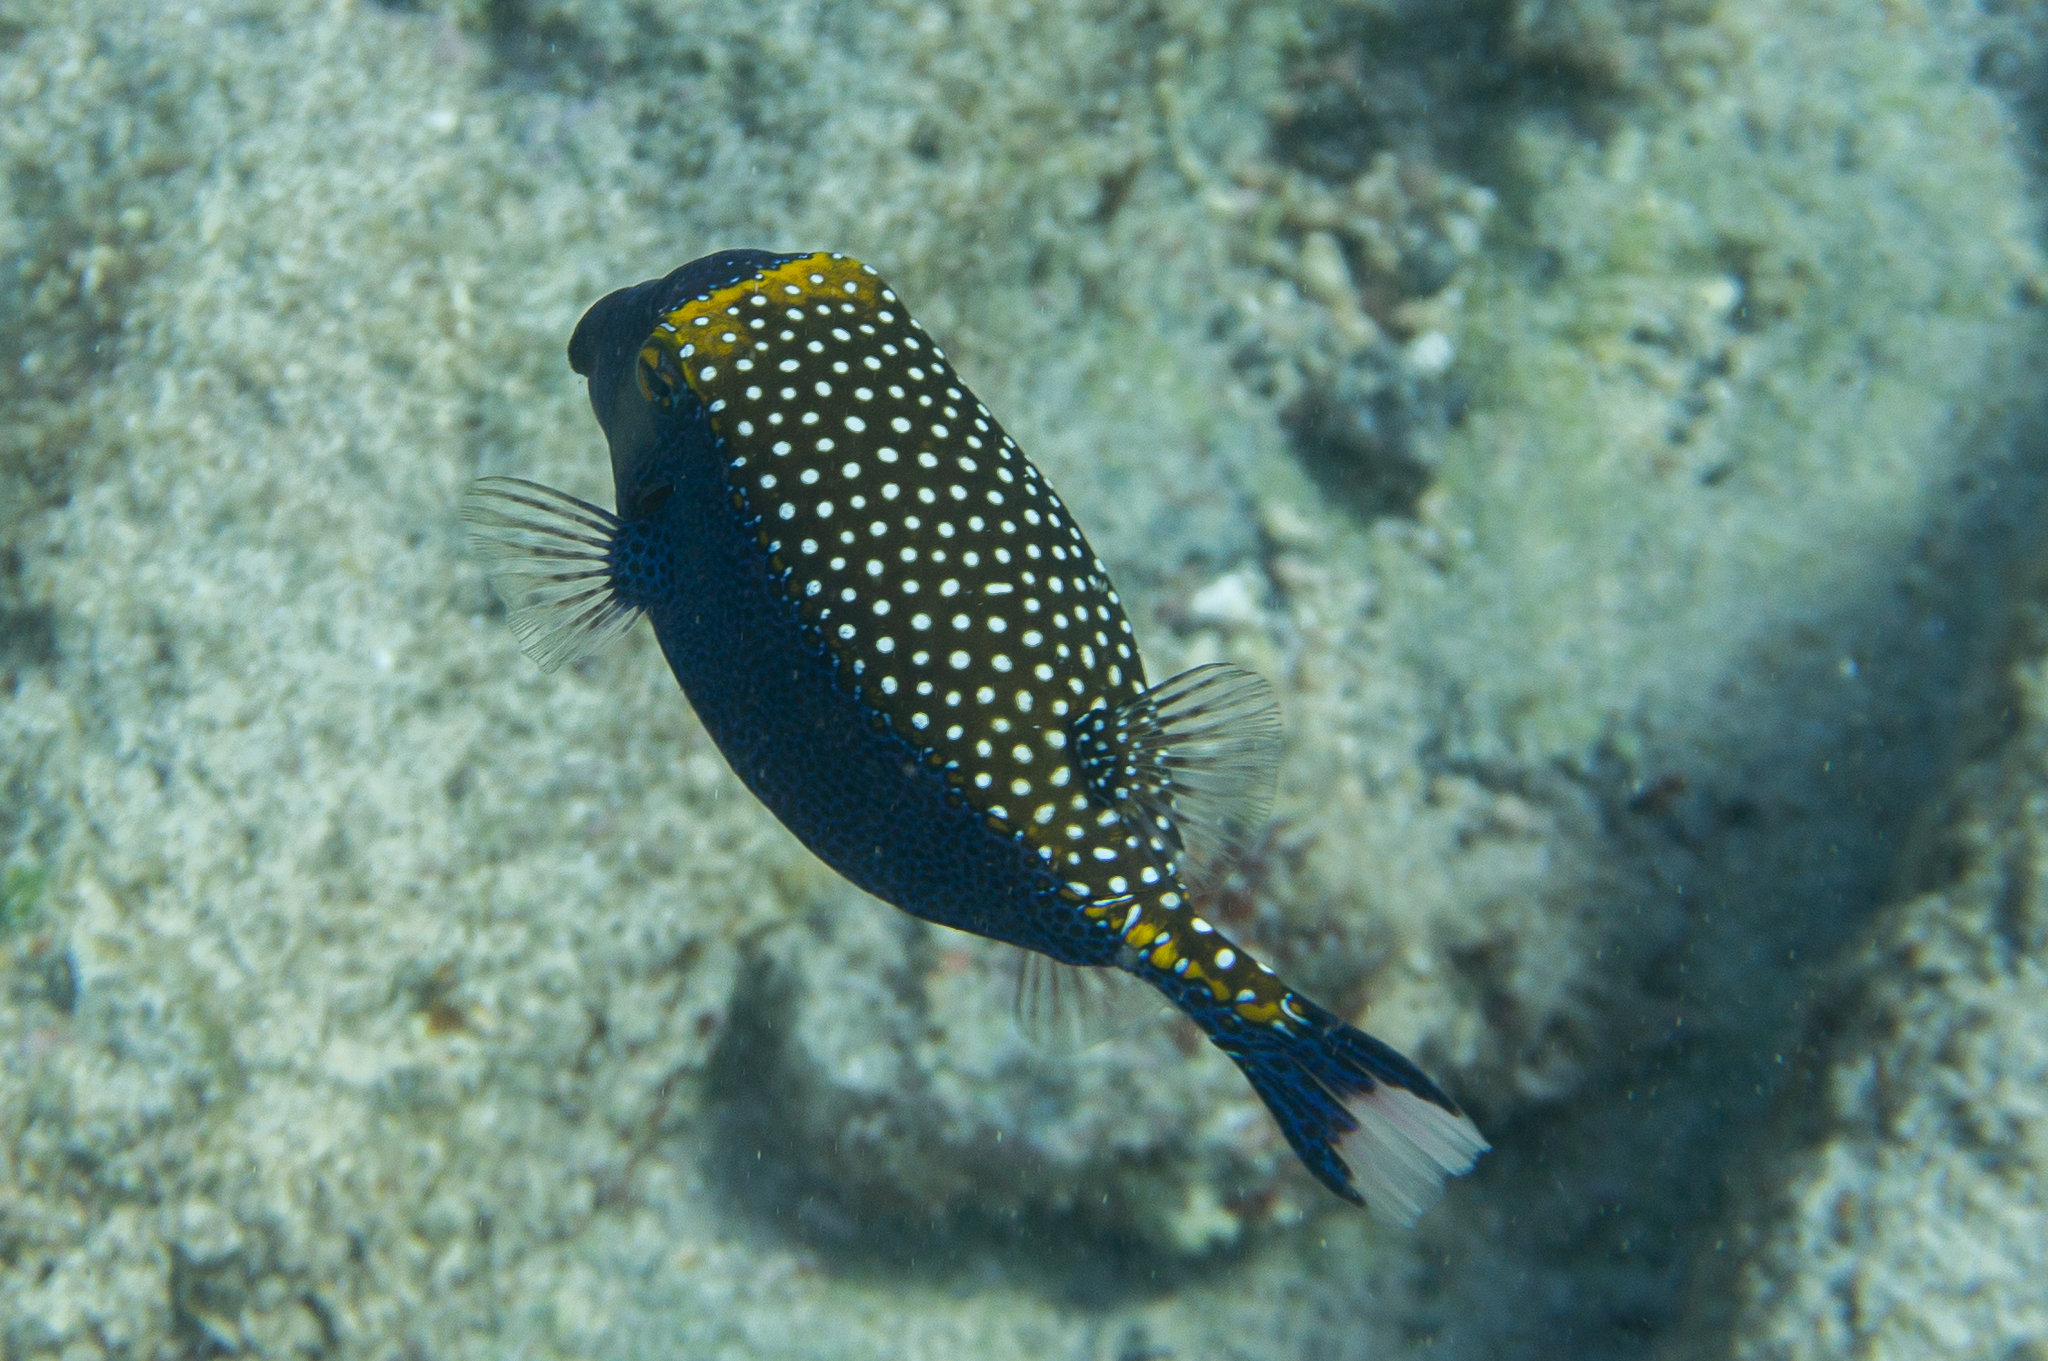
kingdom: Animalia
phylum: Chordata
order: Tetraodontiformes
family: Ostraciidae
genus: Ostracion
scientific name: Ostracion meleagris
